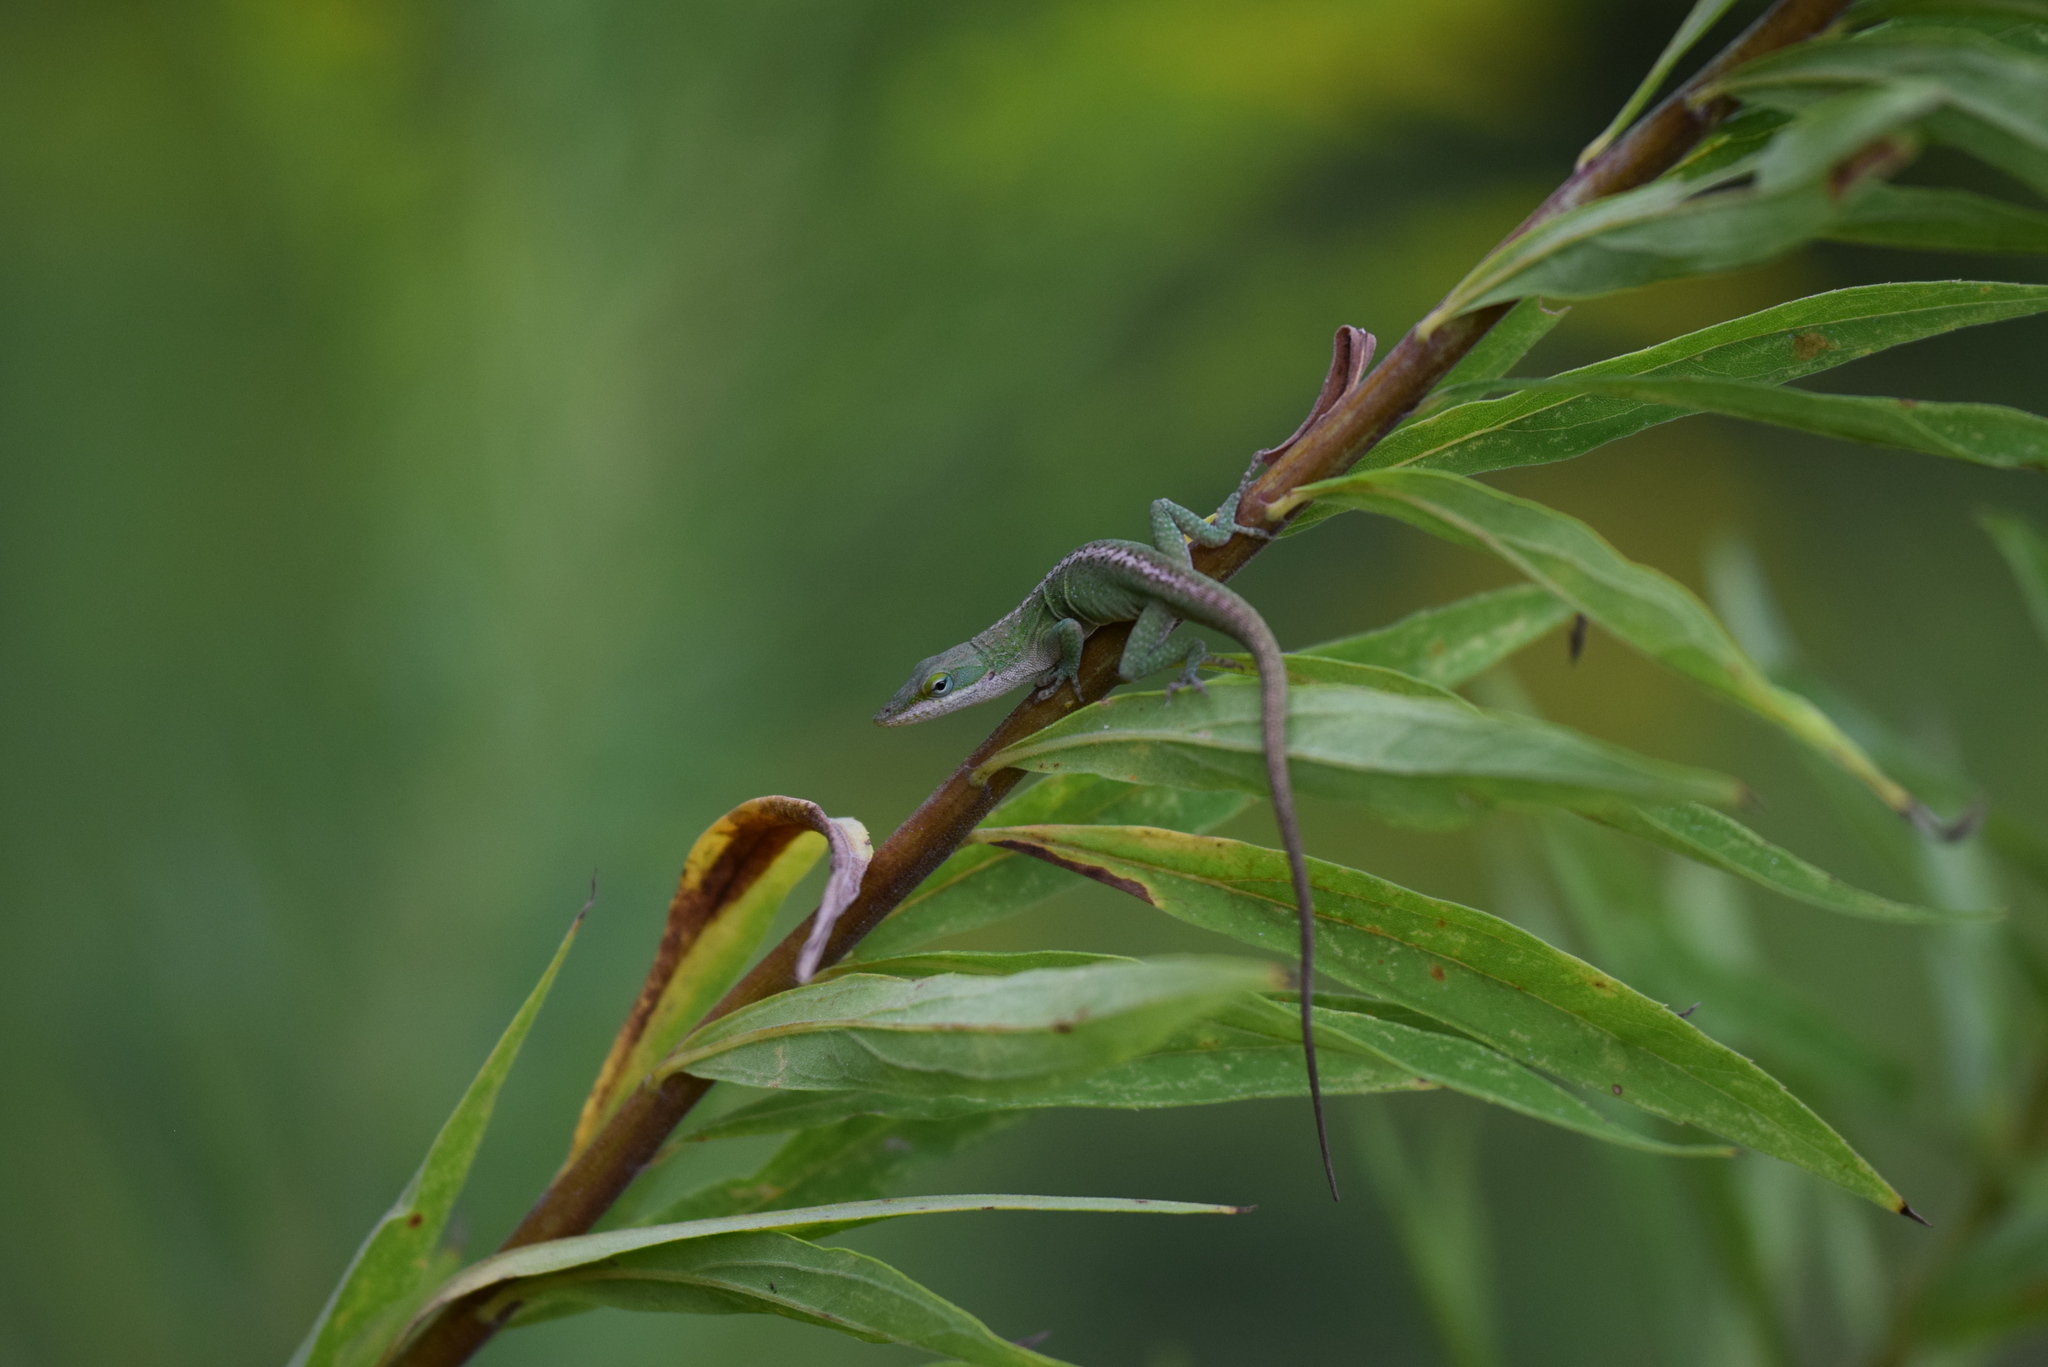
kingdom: Animalia
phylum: Chordata
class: Squamata
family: Dactyloidae
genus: Anolis
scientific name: Anolis carolinensis
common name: Green anole
